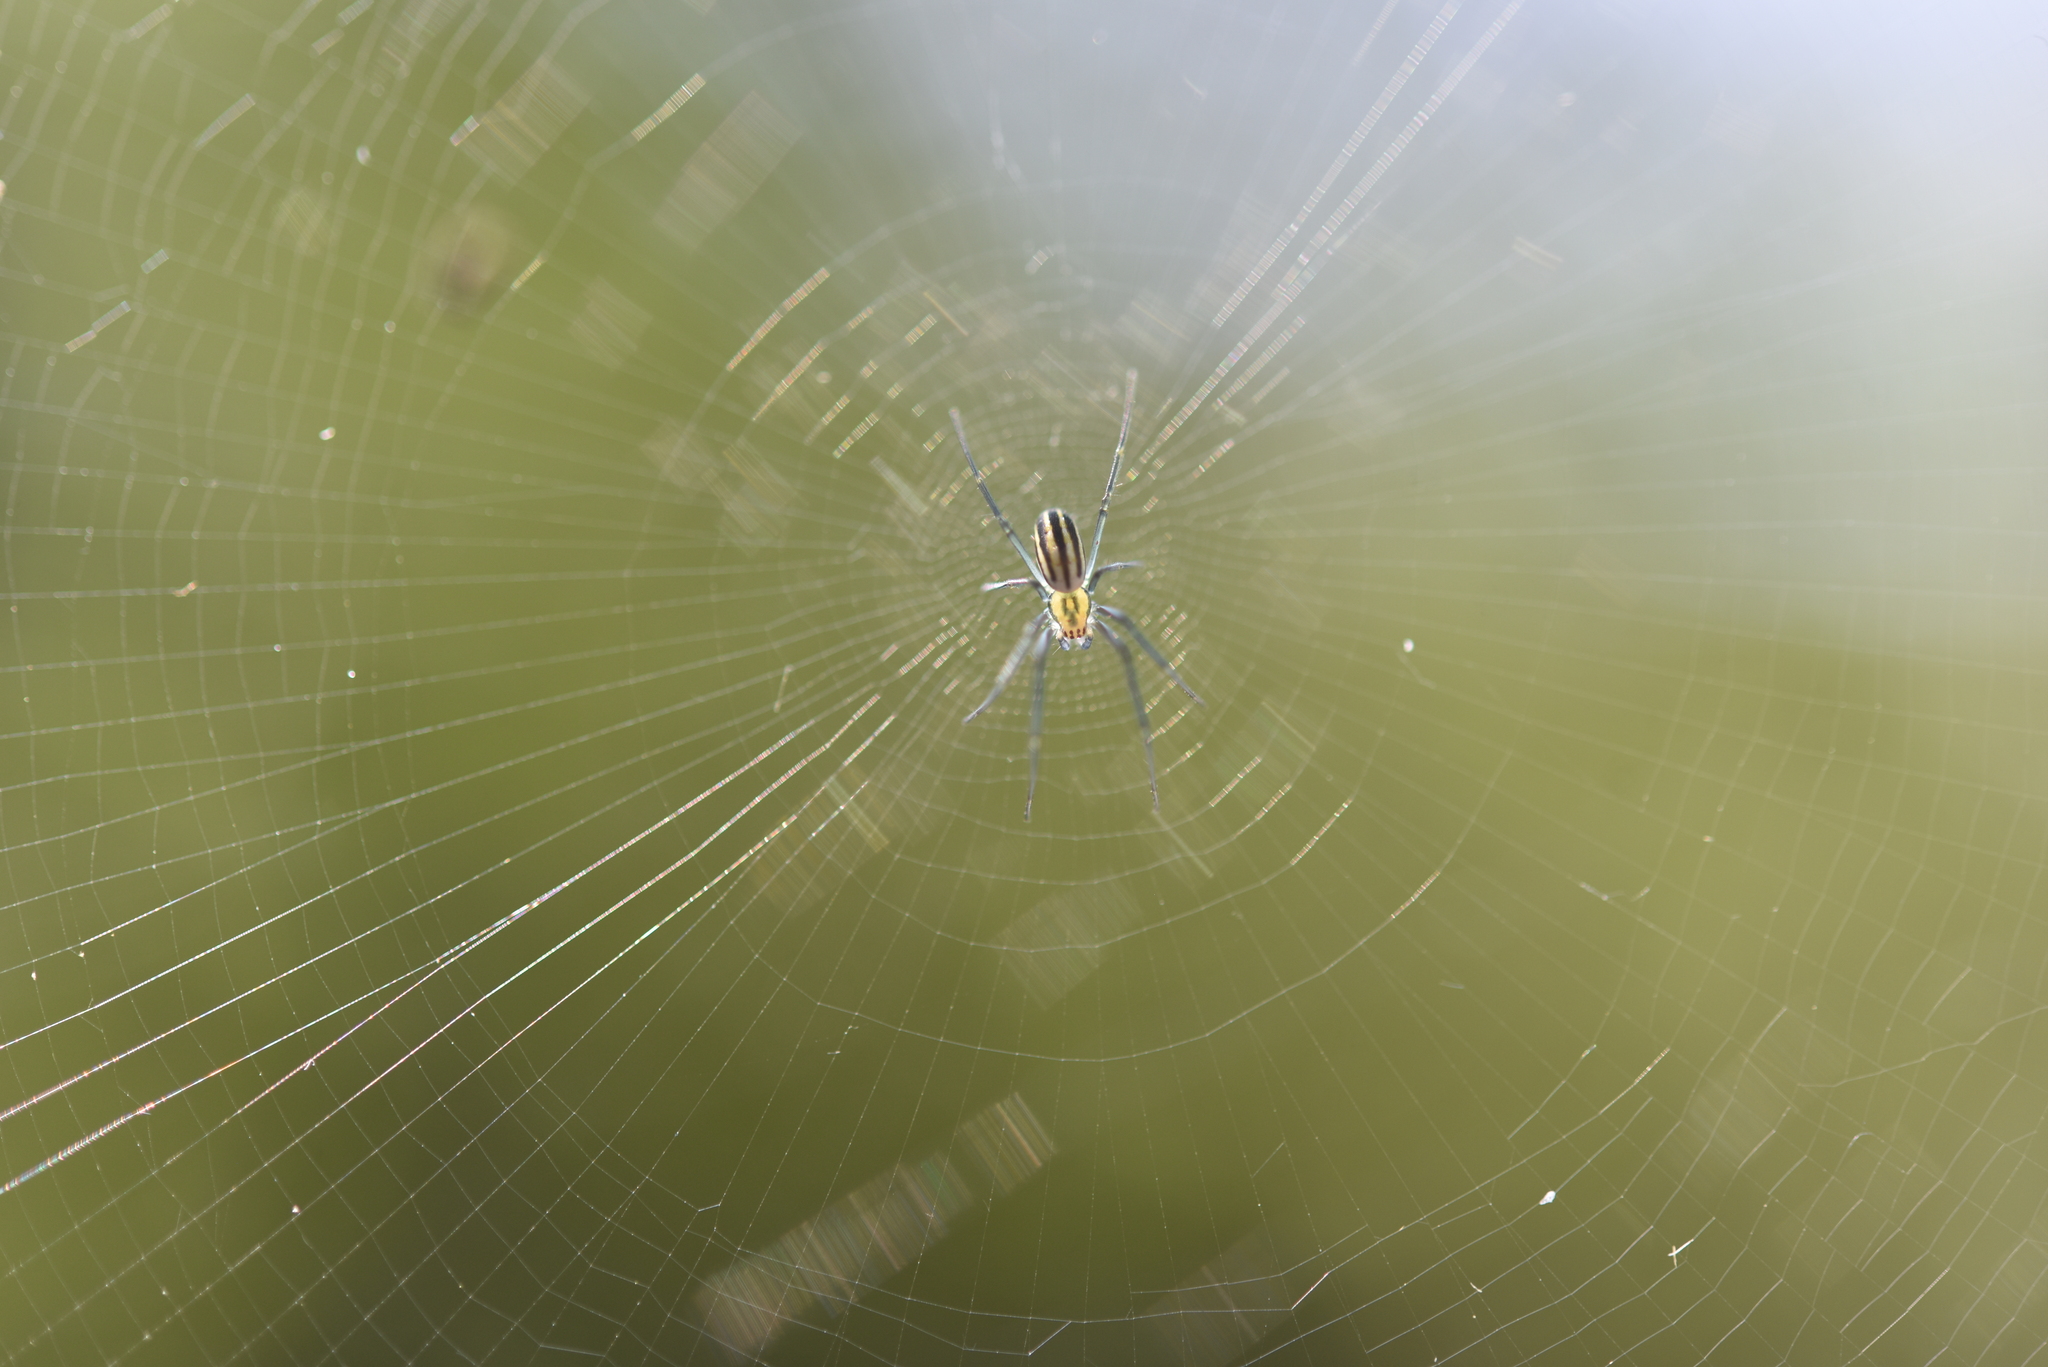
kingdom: Animalia
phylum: Arthropoda
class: Arachnida
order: Araneae
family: Araneidae
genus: Nephila
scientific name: Nephila pilipes
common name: Giant golden orb weaver
